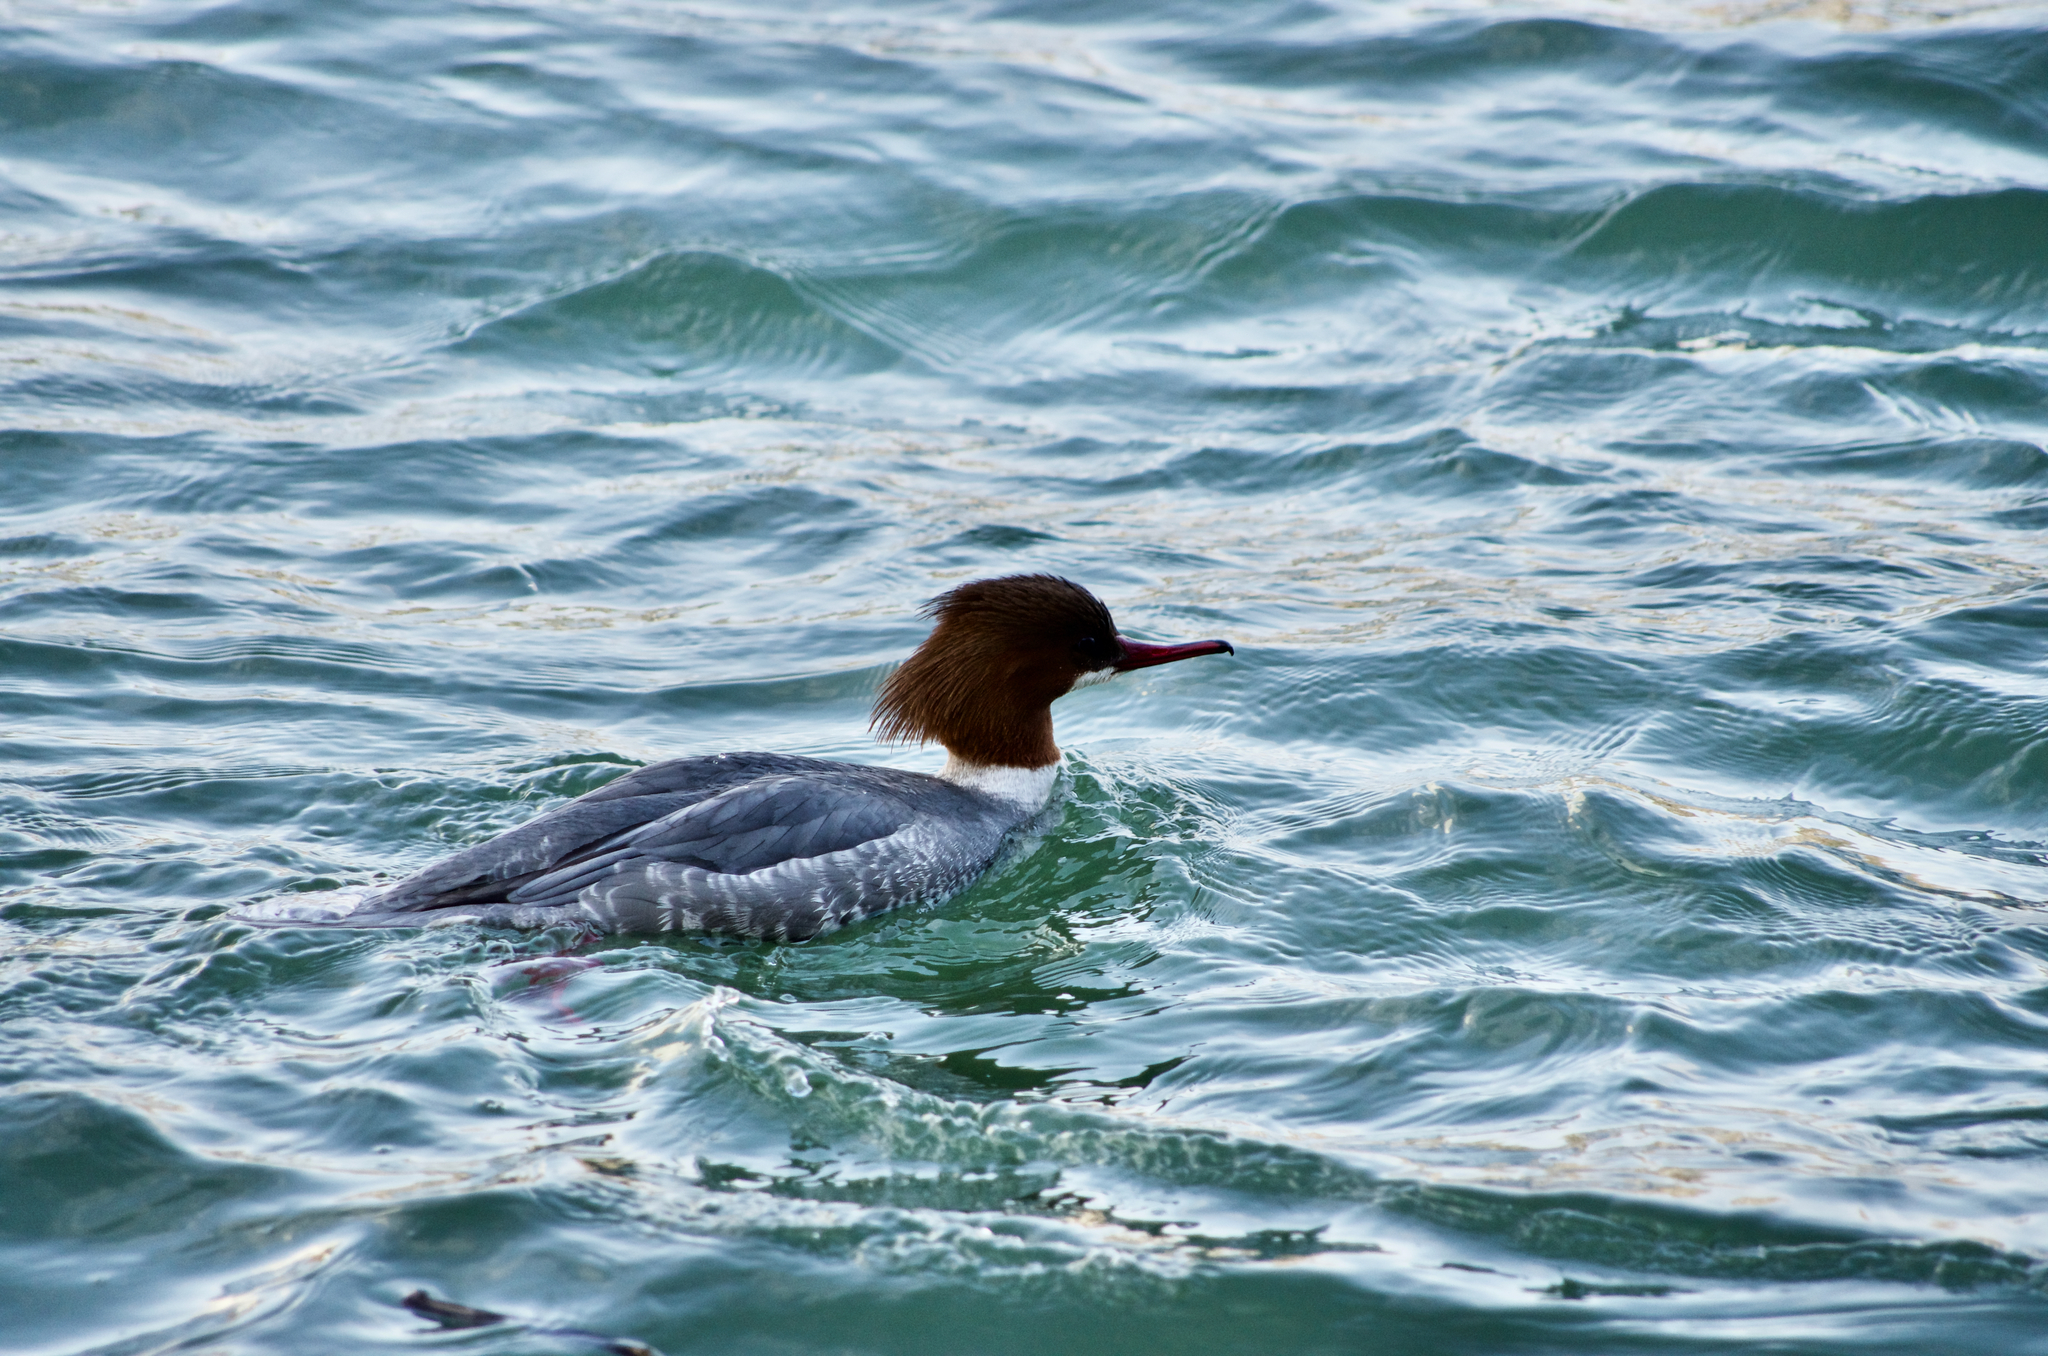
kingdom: Animalia
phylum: Chordata
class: Aves
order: Anseriformes
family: Anatidae
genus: Mergus
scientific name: Mergus merganser
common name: Common merganser
